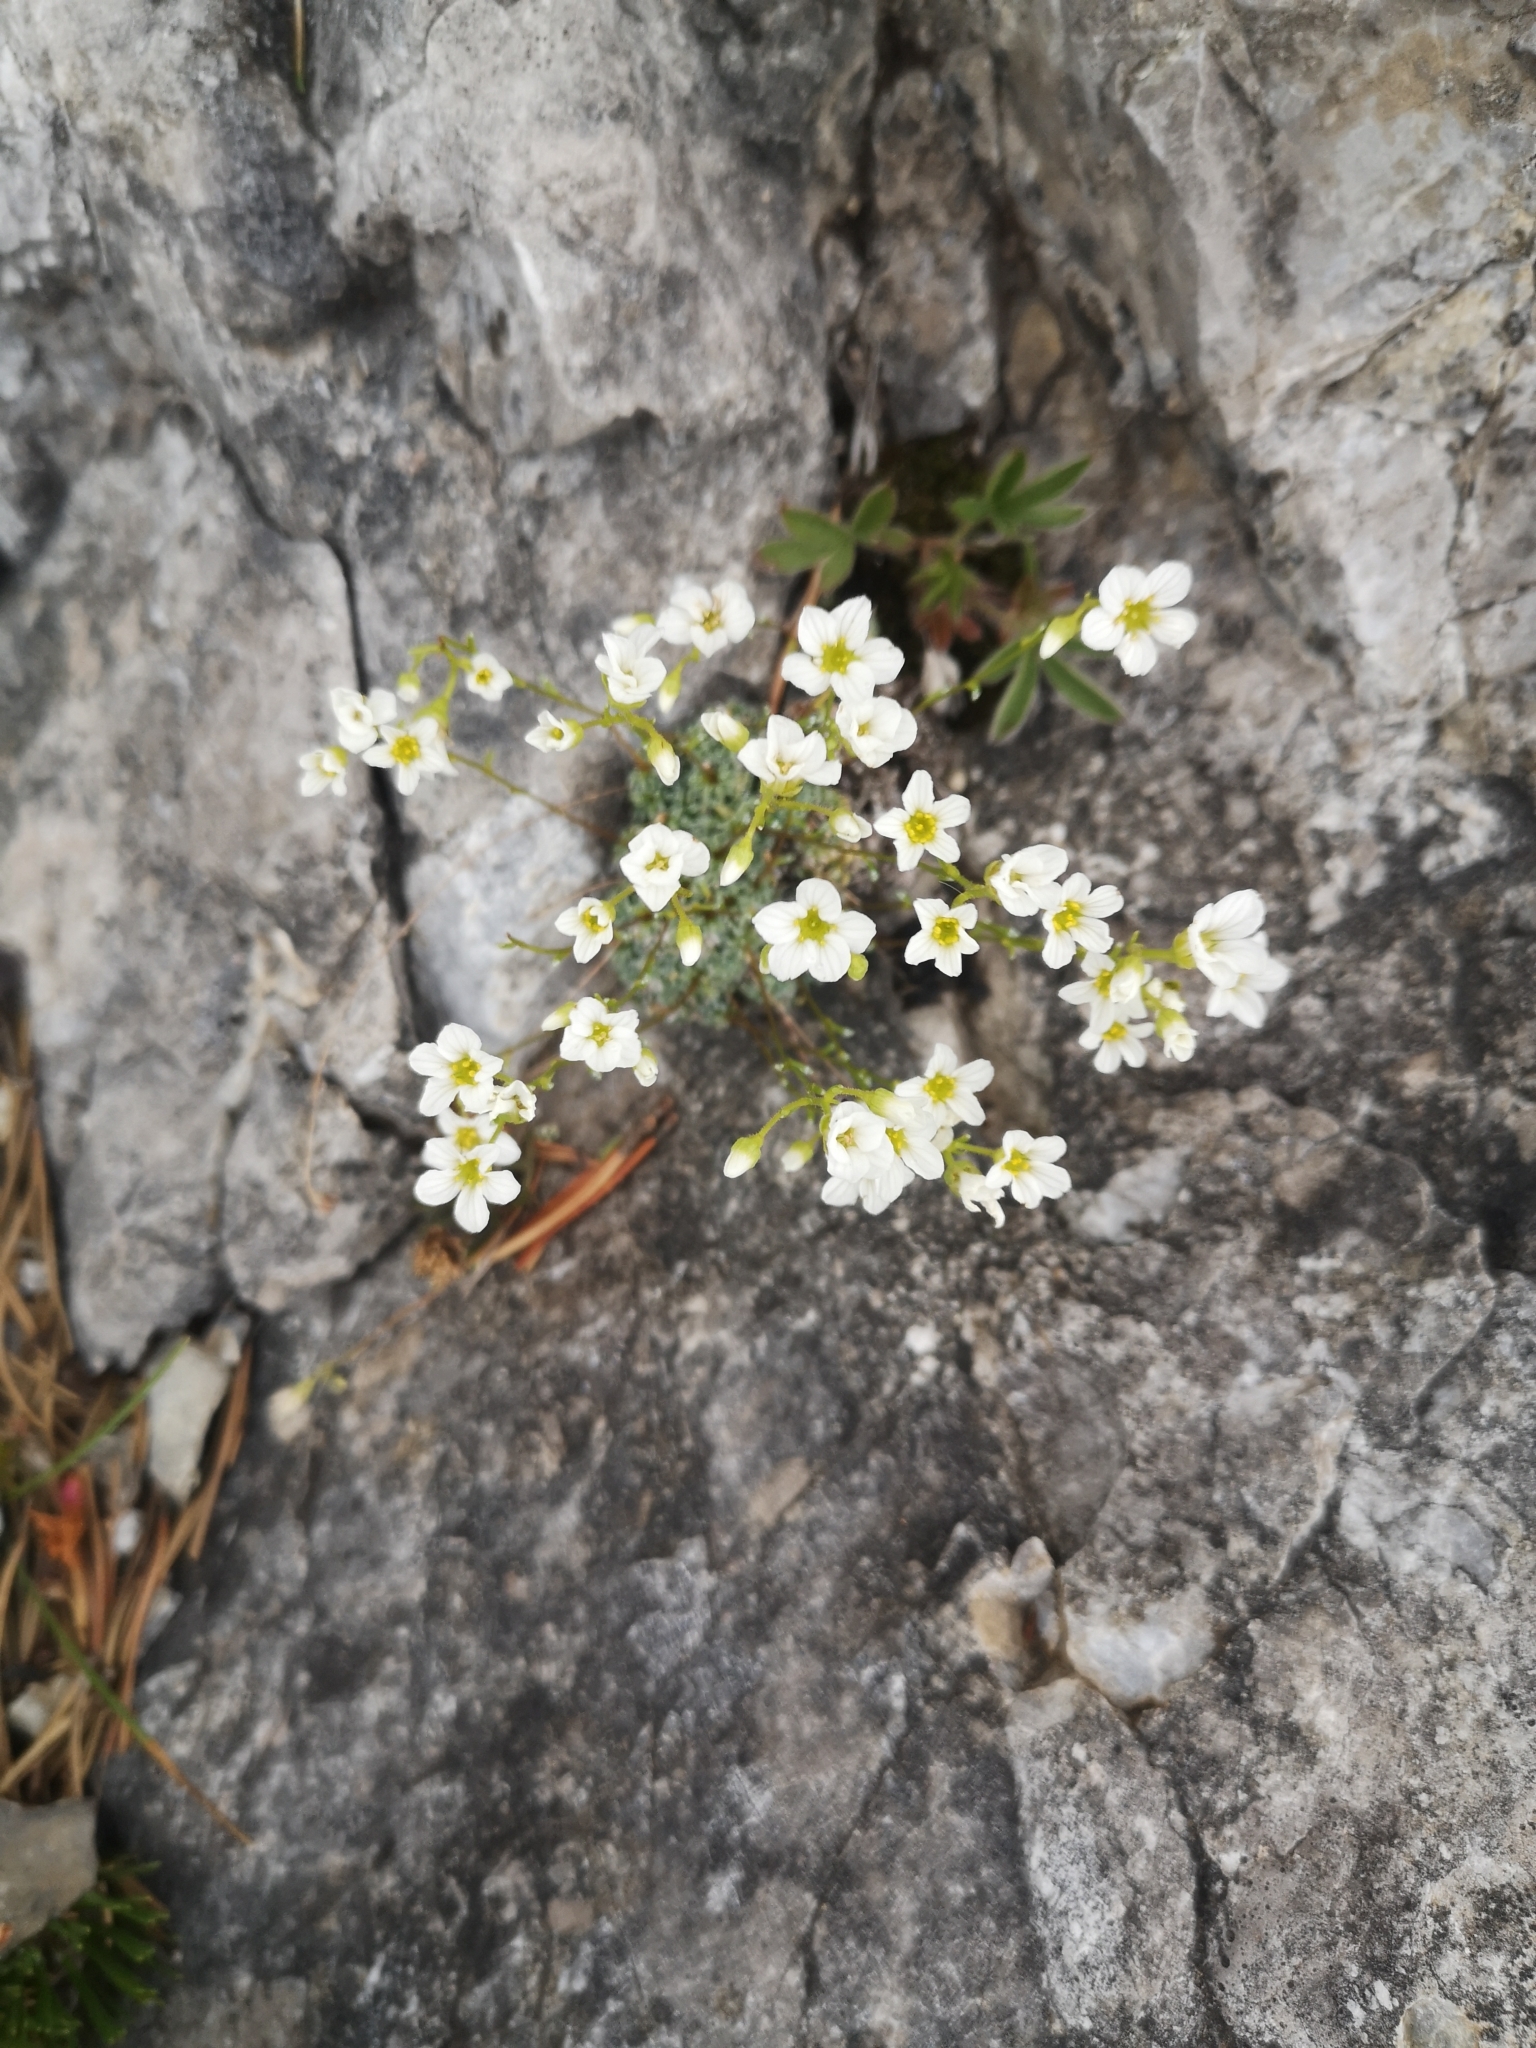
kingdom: Plantae
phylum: Tracheophyta
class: Magnoliopsida
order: Saxifragales
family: Saxifragaceae
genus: Saxifraga
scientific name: Saxifraga caesia
